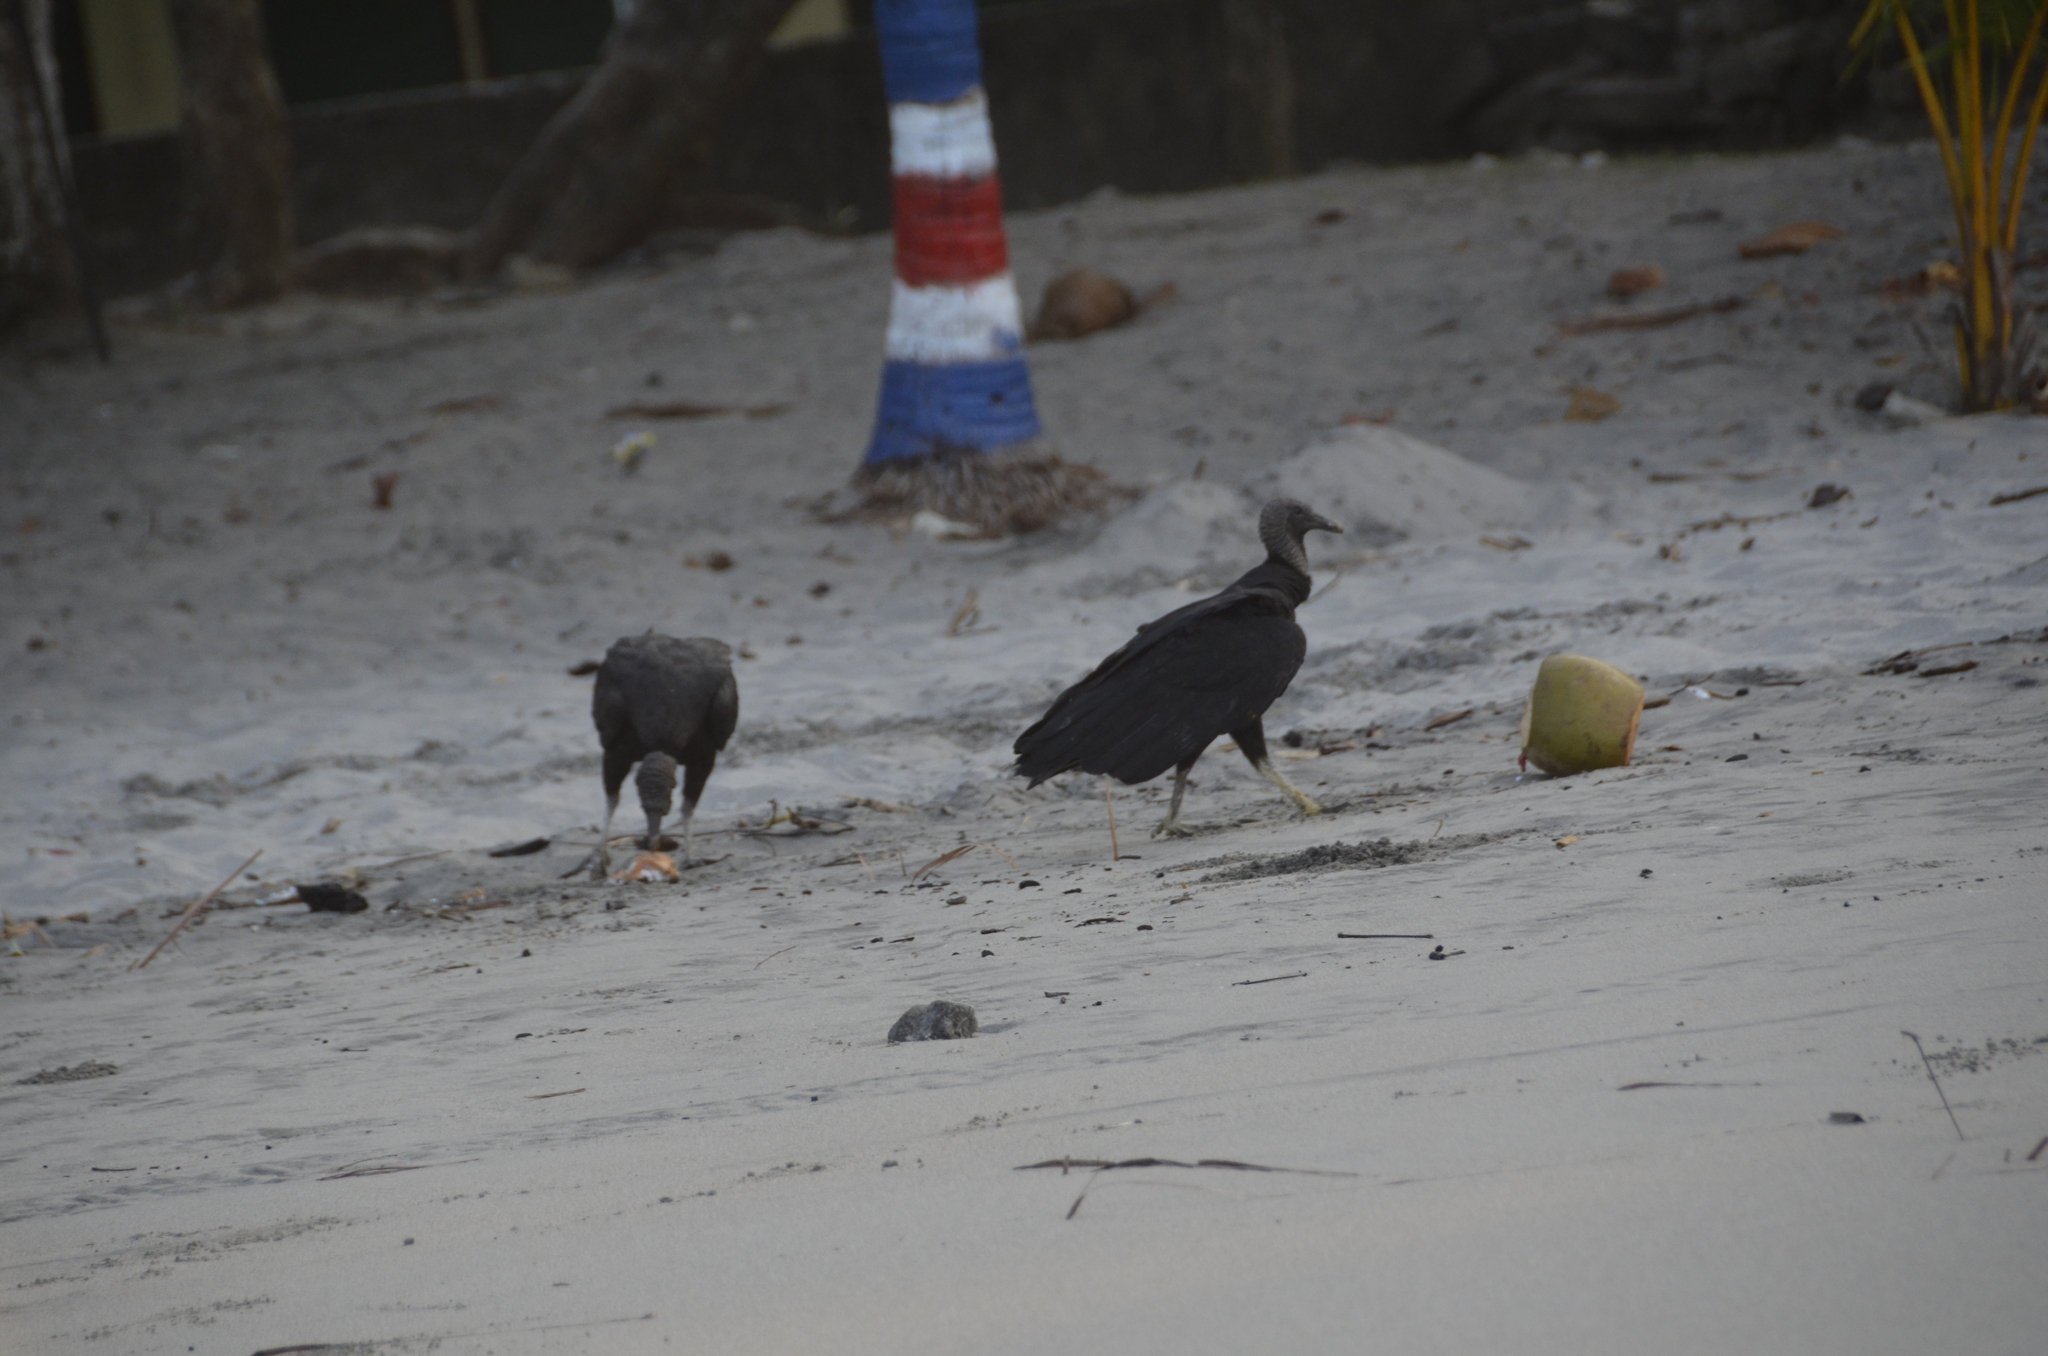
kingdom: Animalia
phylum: Chordata
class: Aves
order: Accipitriformes
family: Cathartidae
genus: Coragyps
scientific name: Coragyps atratus
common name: Black vulture
